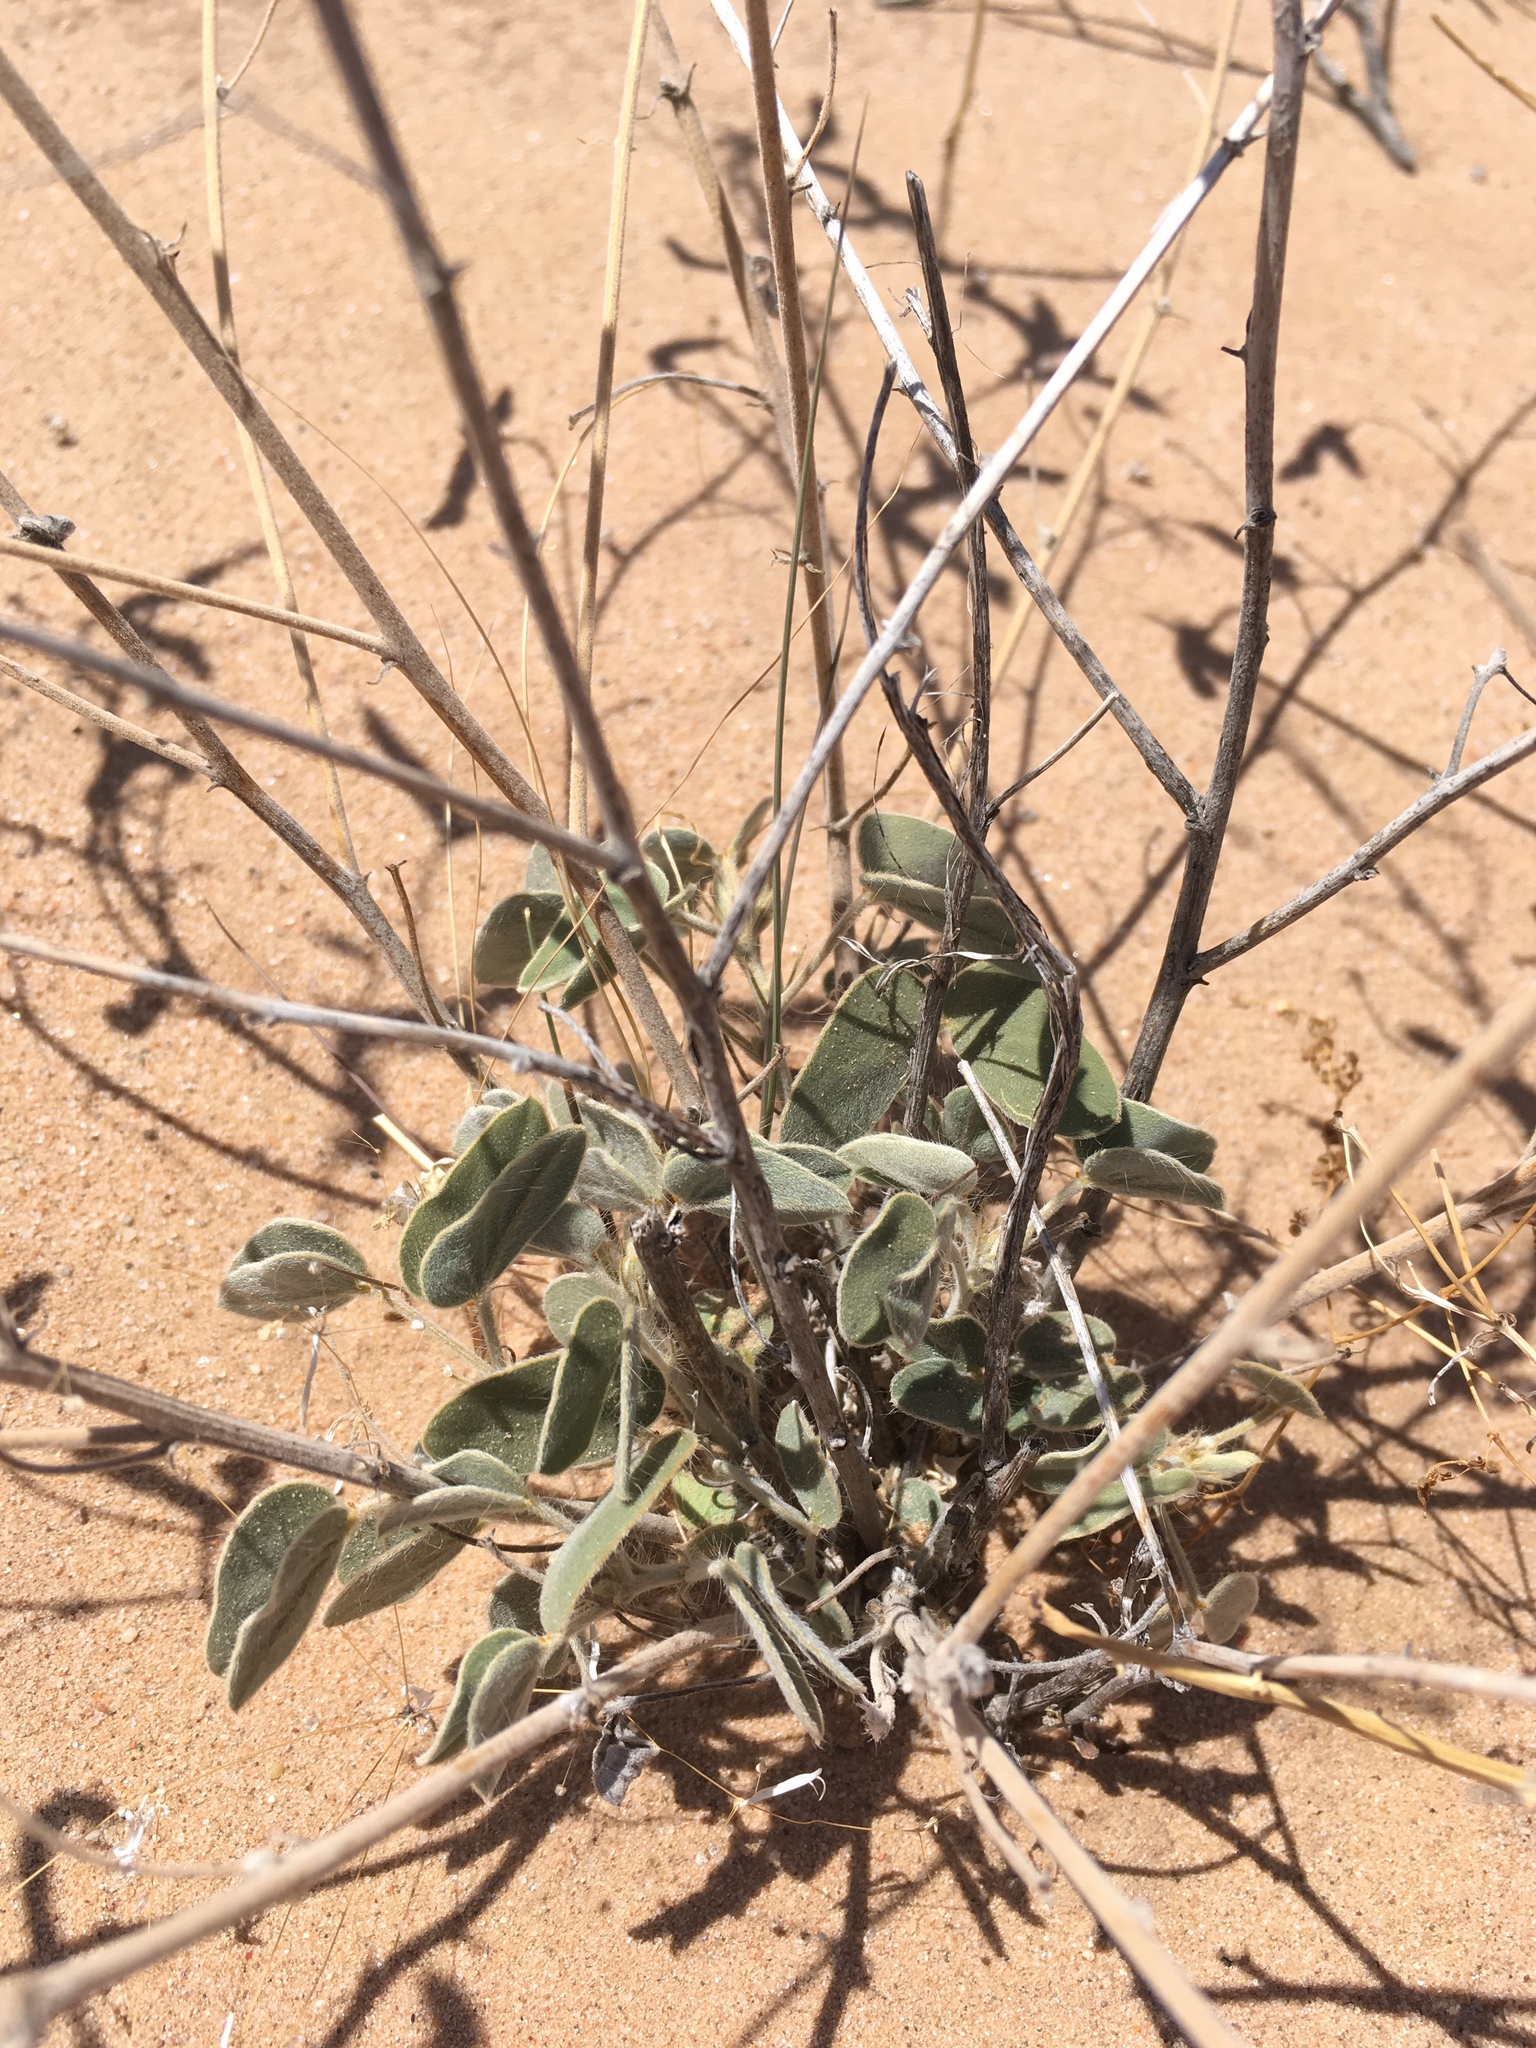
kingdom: Plantae
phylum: Tracheophyta
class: Magnoliopsida
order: Fabales
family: Fabaceae
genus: Senna
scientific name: Senna bauhinioides
